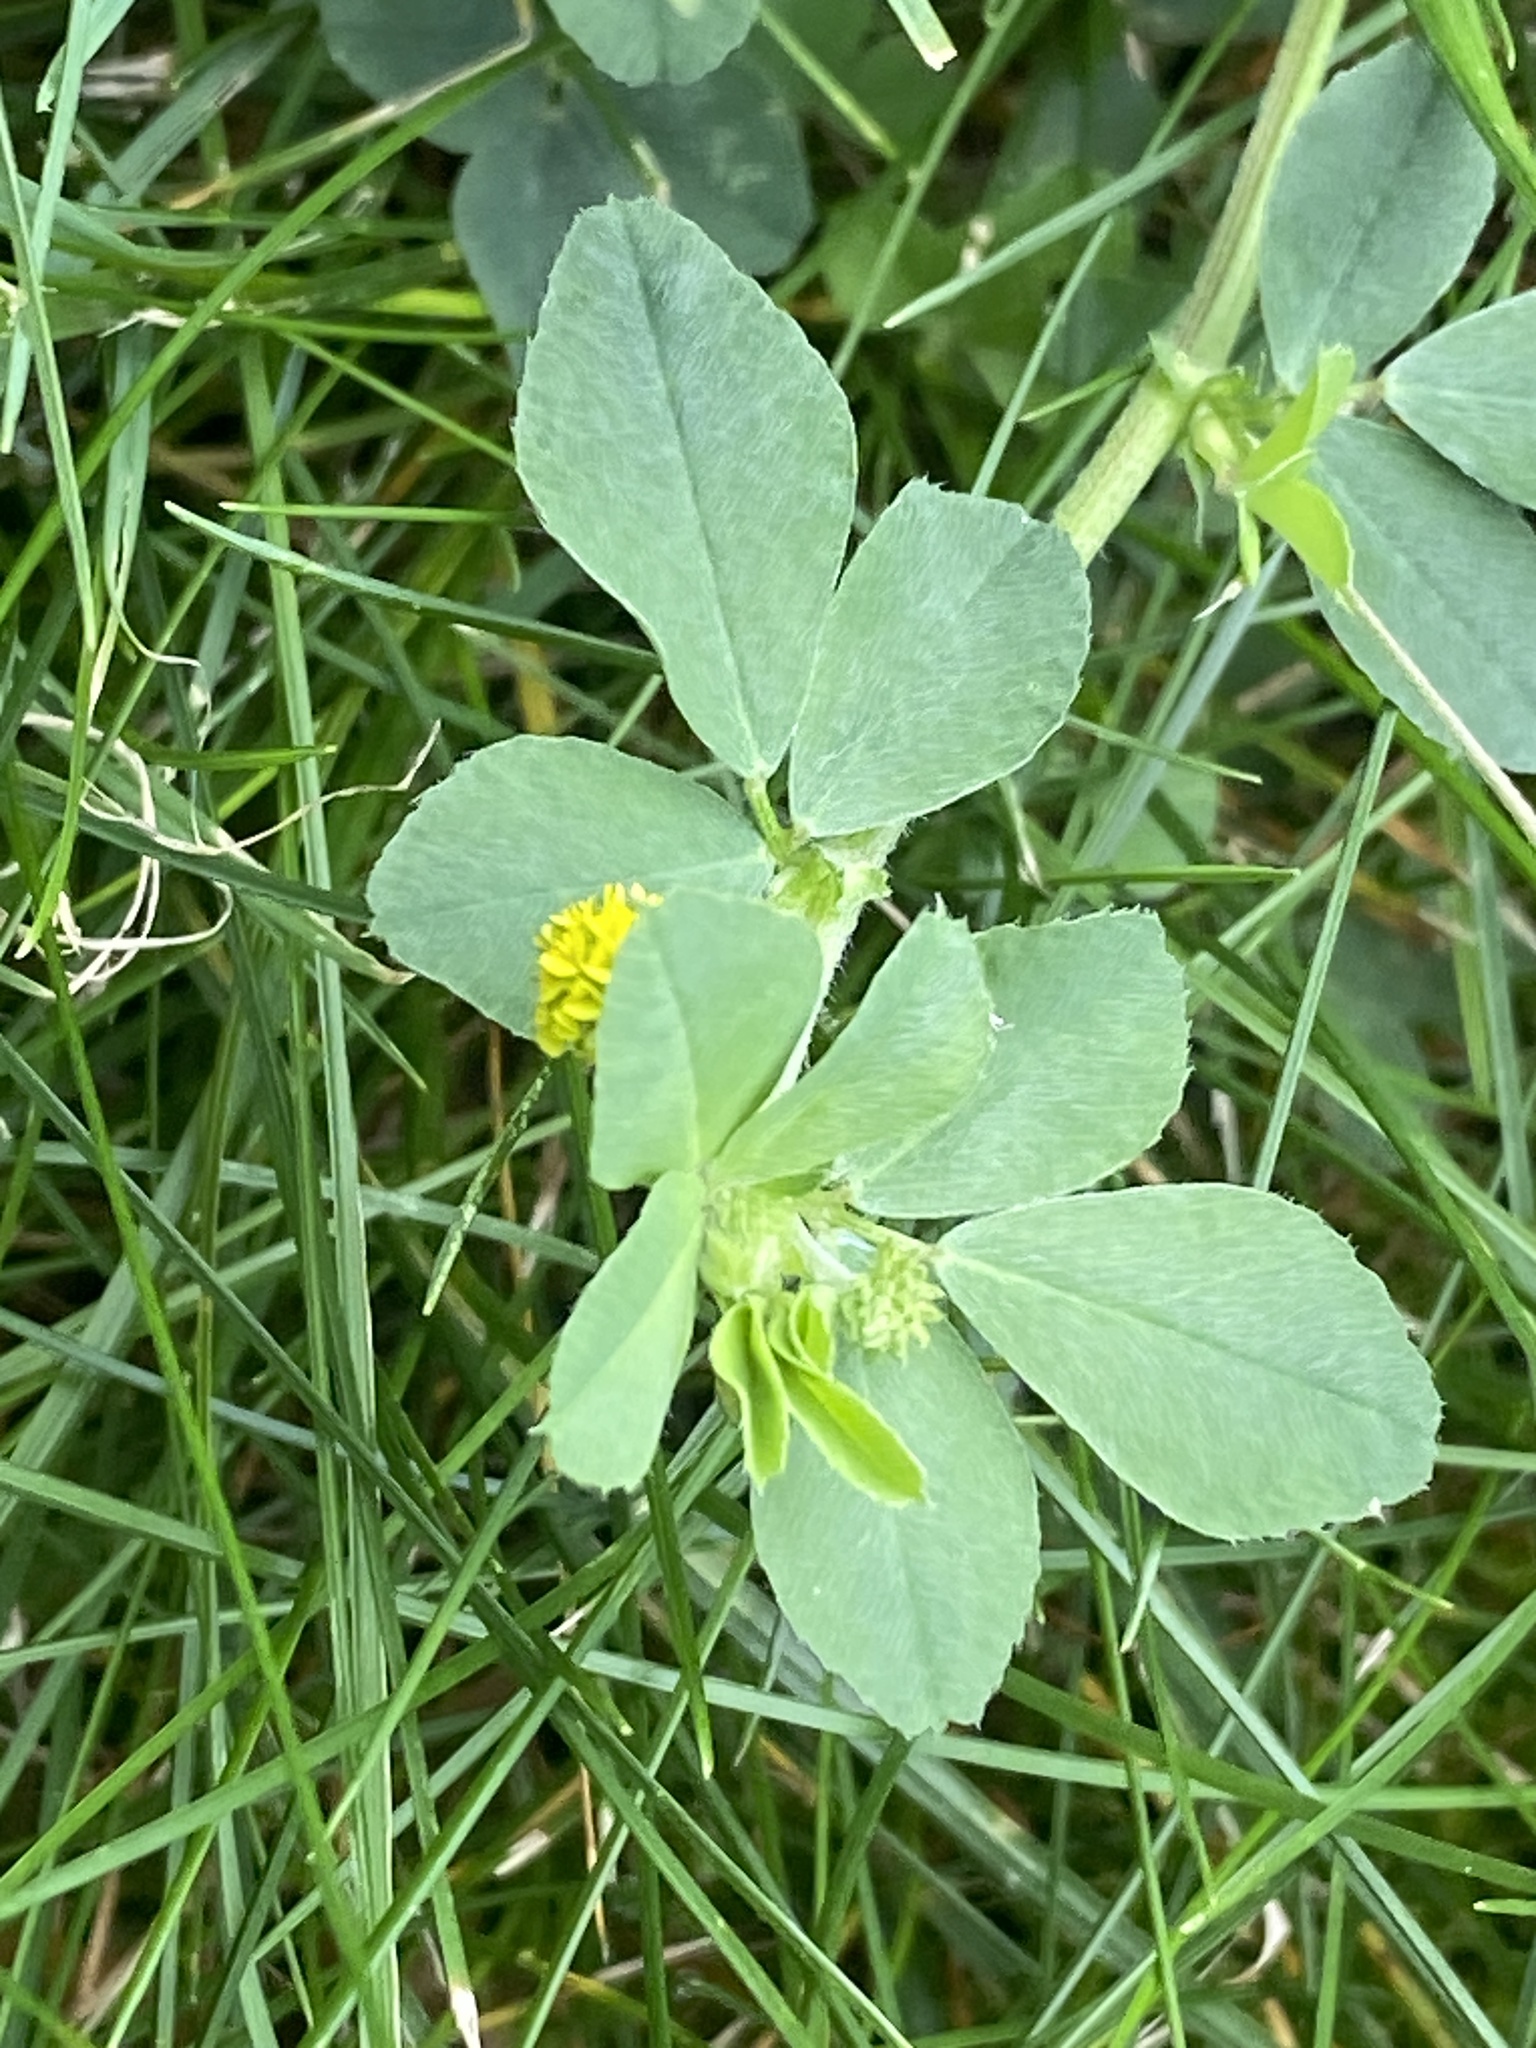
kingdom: Plantae
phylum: Tracheophyta
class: Magnoliopsida
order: Fabales
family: Fabaceae
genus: Medicago
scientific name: Medicago lupulina
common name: Black medick
